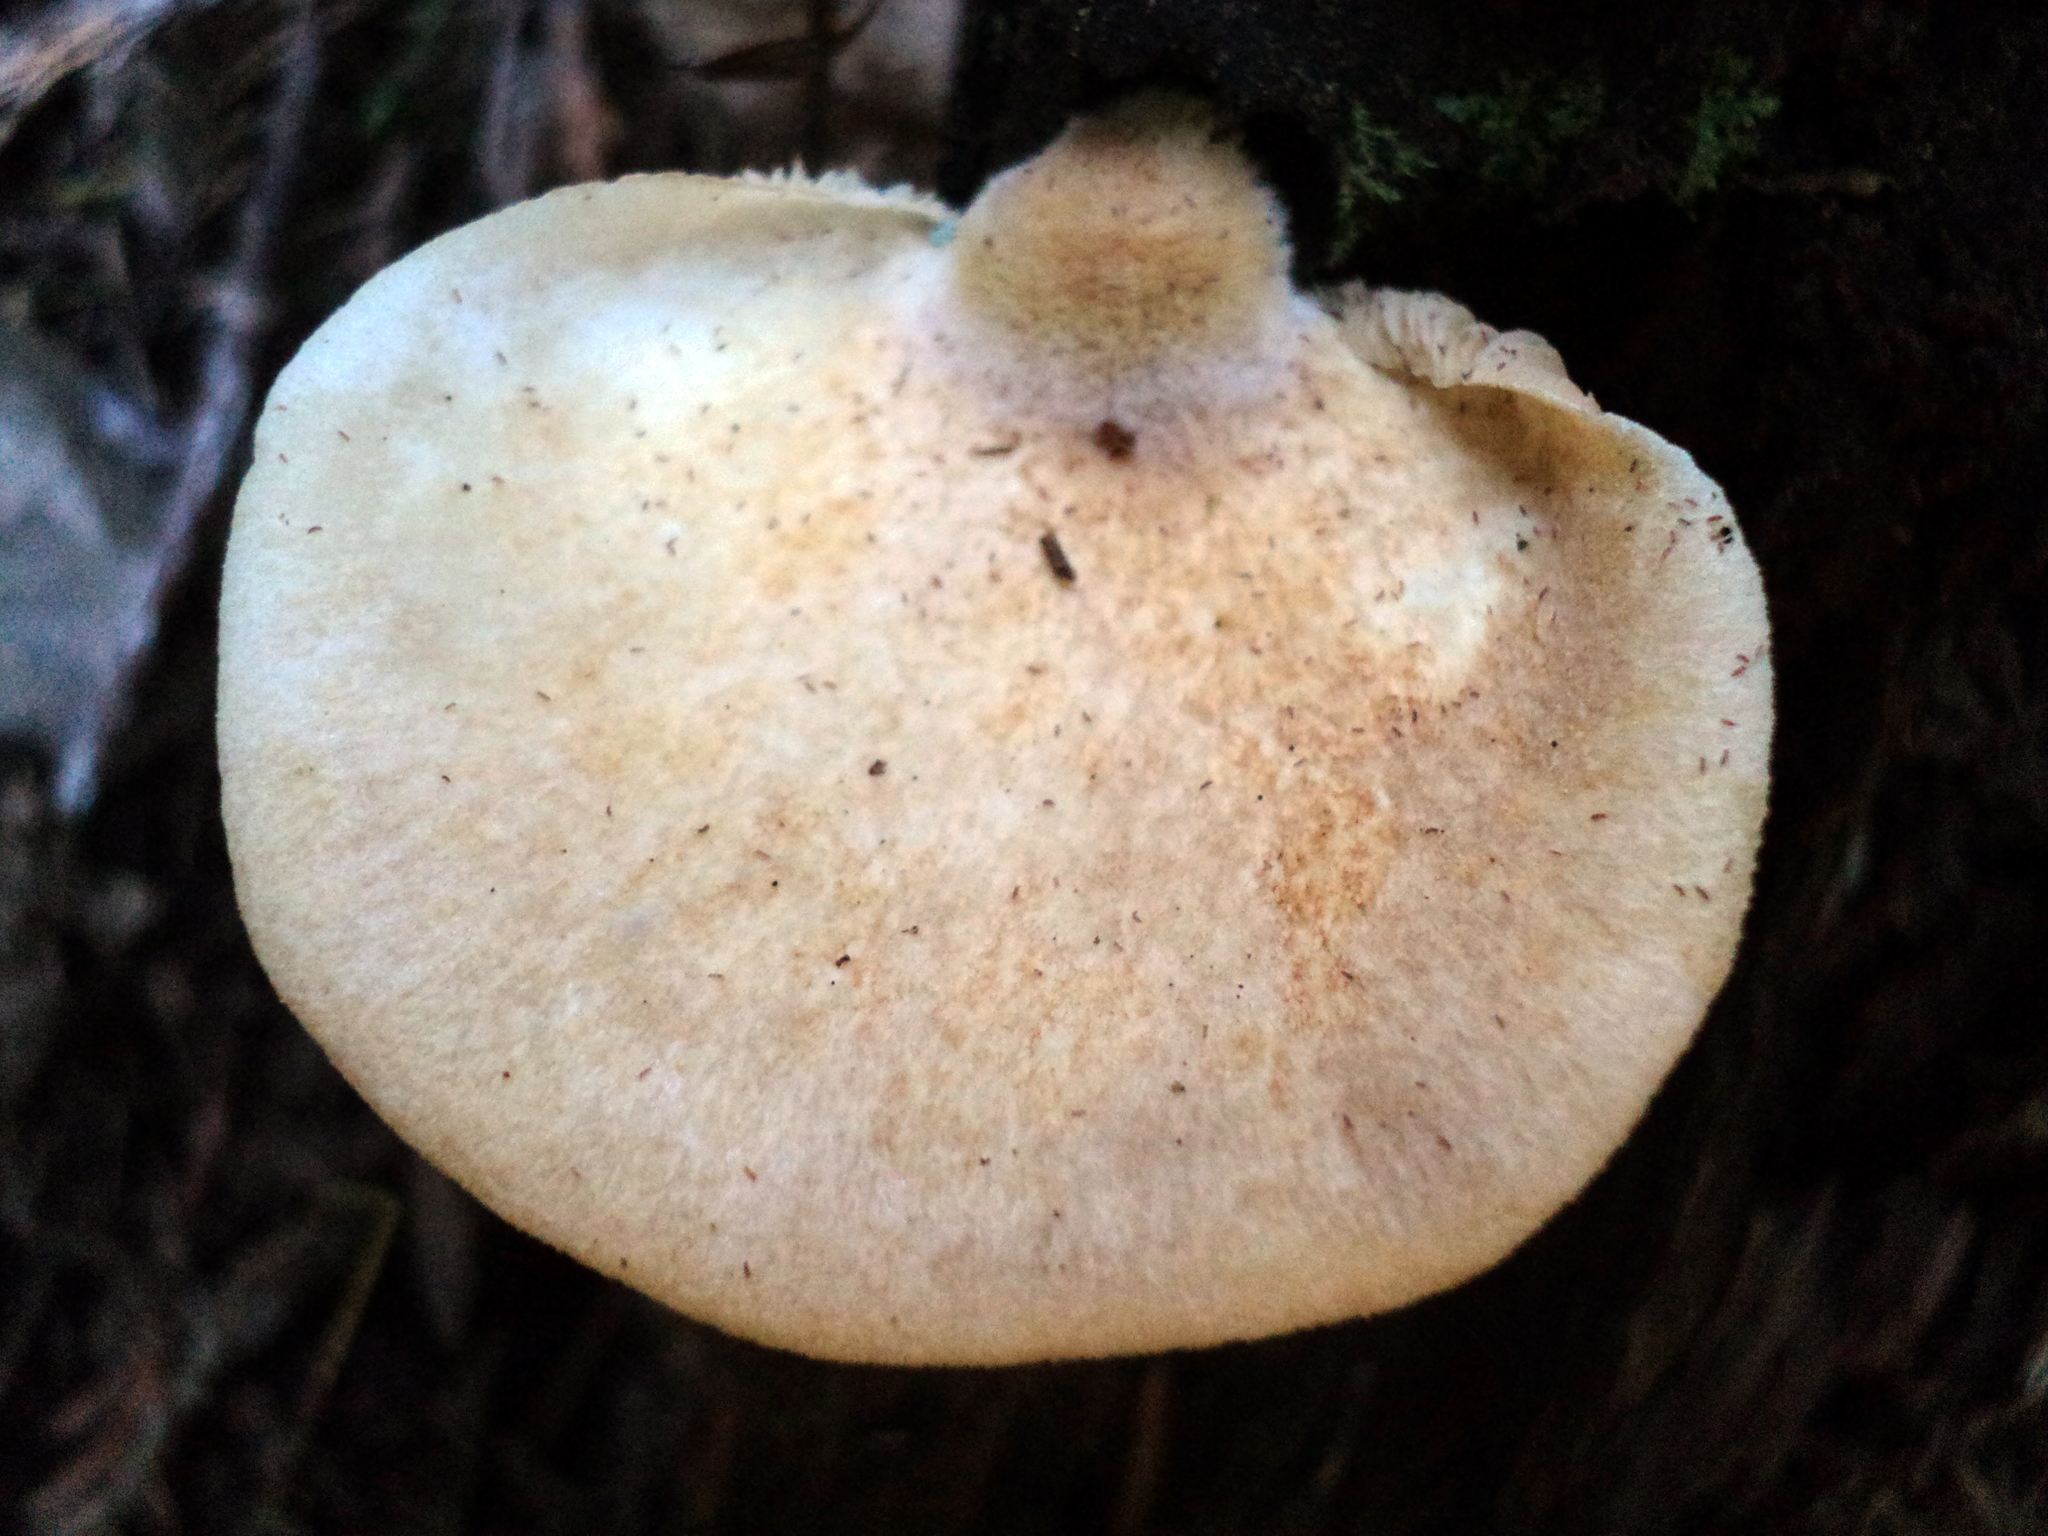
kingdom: Fungi
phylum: Basidiomycota
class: Agaricomycetes
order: Agaricales
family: Crepidotaceae
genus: Crepidotus
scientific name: Crepidotus mollis
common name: Peeling oysterling
